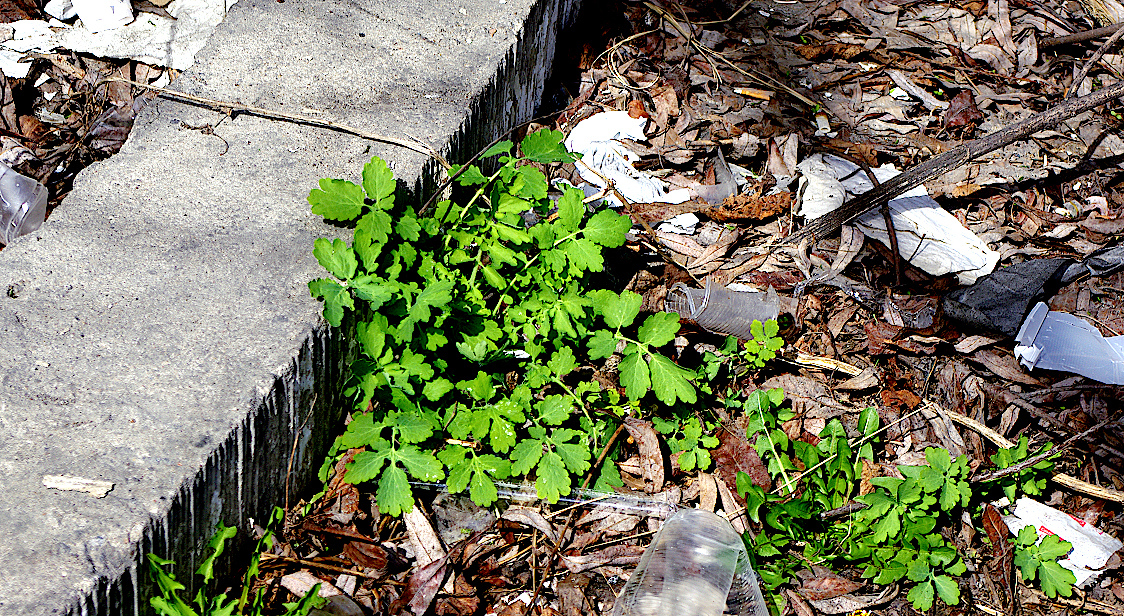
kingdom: Plantae
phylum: Tracheophyta
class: Magnoliopsida
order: Ranunculales
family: Papaveraceae
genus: Chelidonium
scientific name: Chelidonium majus
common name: Greater celandine
